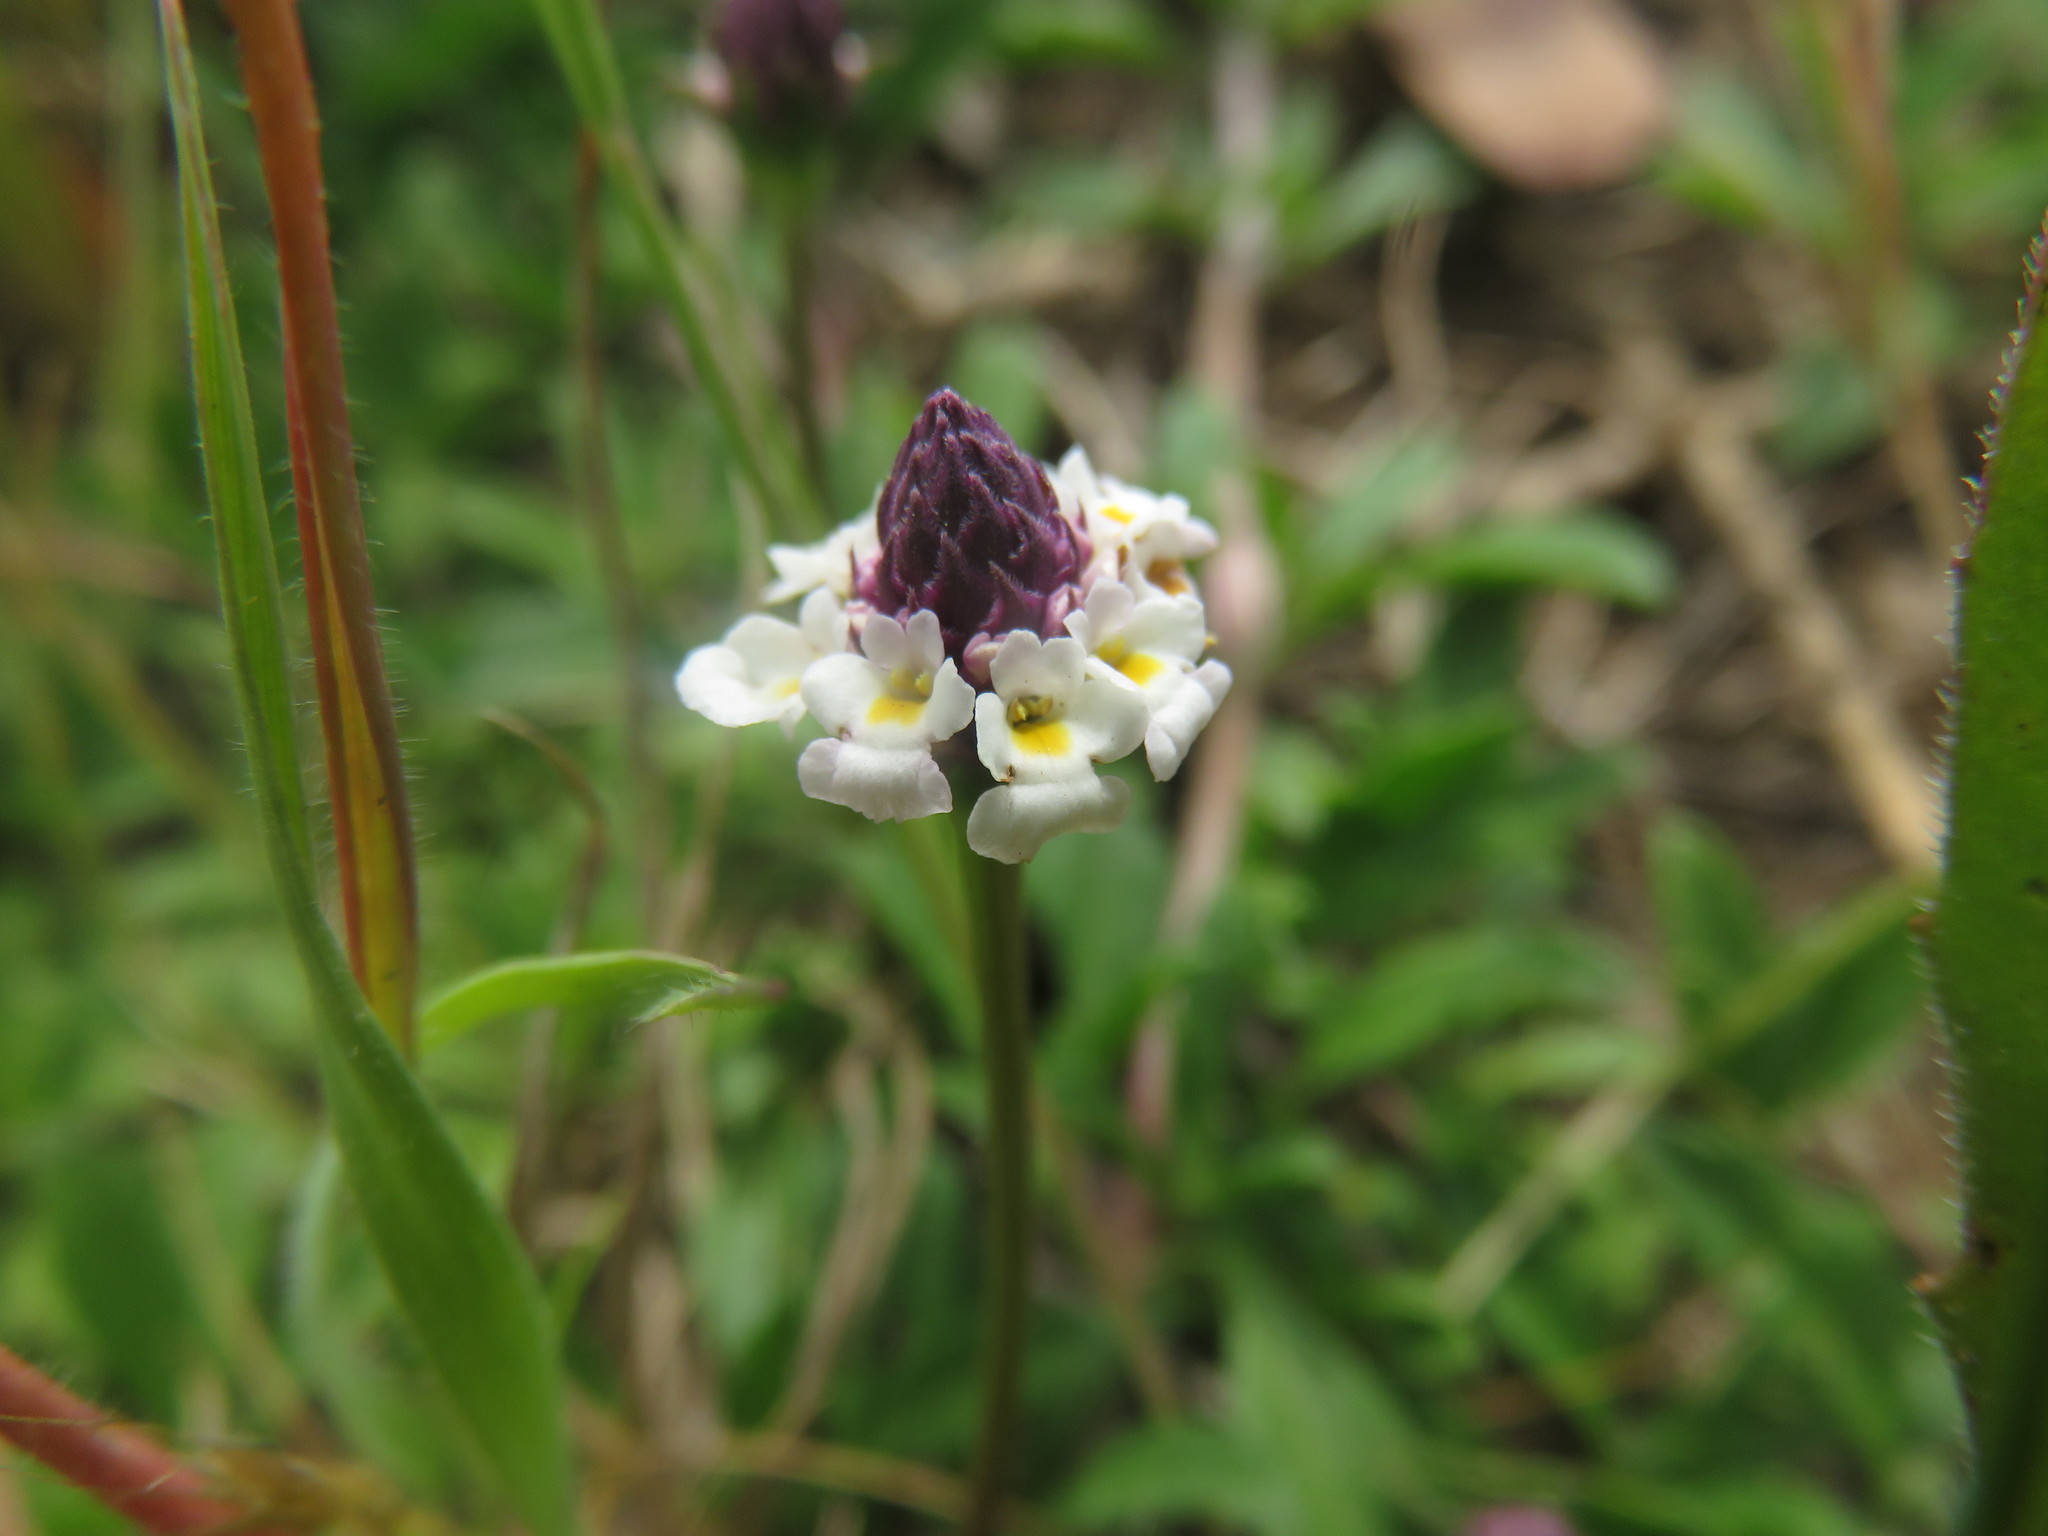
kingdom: Plantae
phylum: Tracheophyta
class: Magnoliopsida
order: Lamiales
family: Verbenaceae
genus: Phyla
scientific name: Phyla nodiflora
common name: Frogfruit
